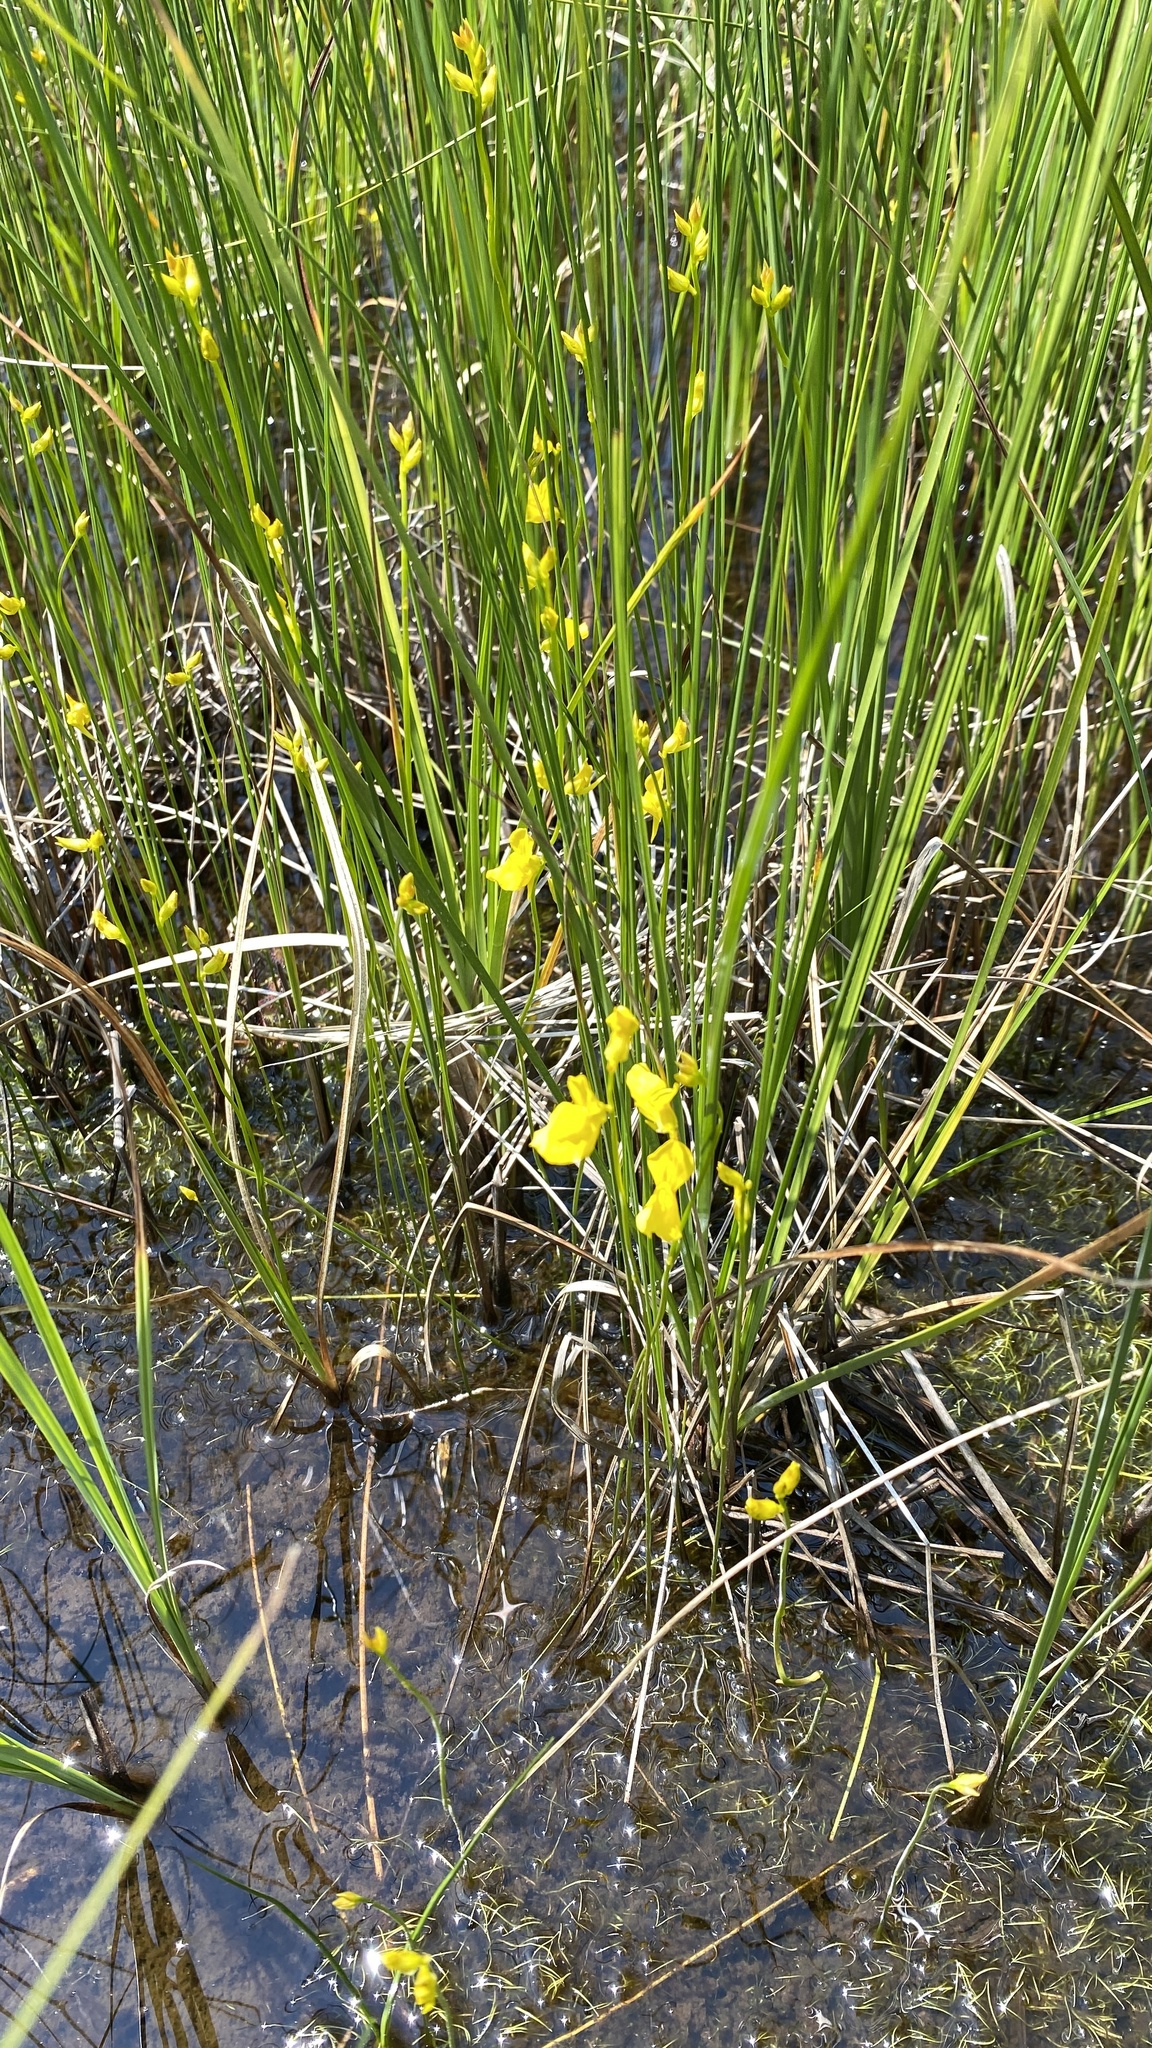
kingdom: Plantae
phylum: Tracheophyta
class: Magnoliopsida
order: Lamiales
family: Lentibulariaceae
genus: Utricularia
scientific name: Utricularia cornuta
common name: Horned bladderwort
